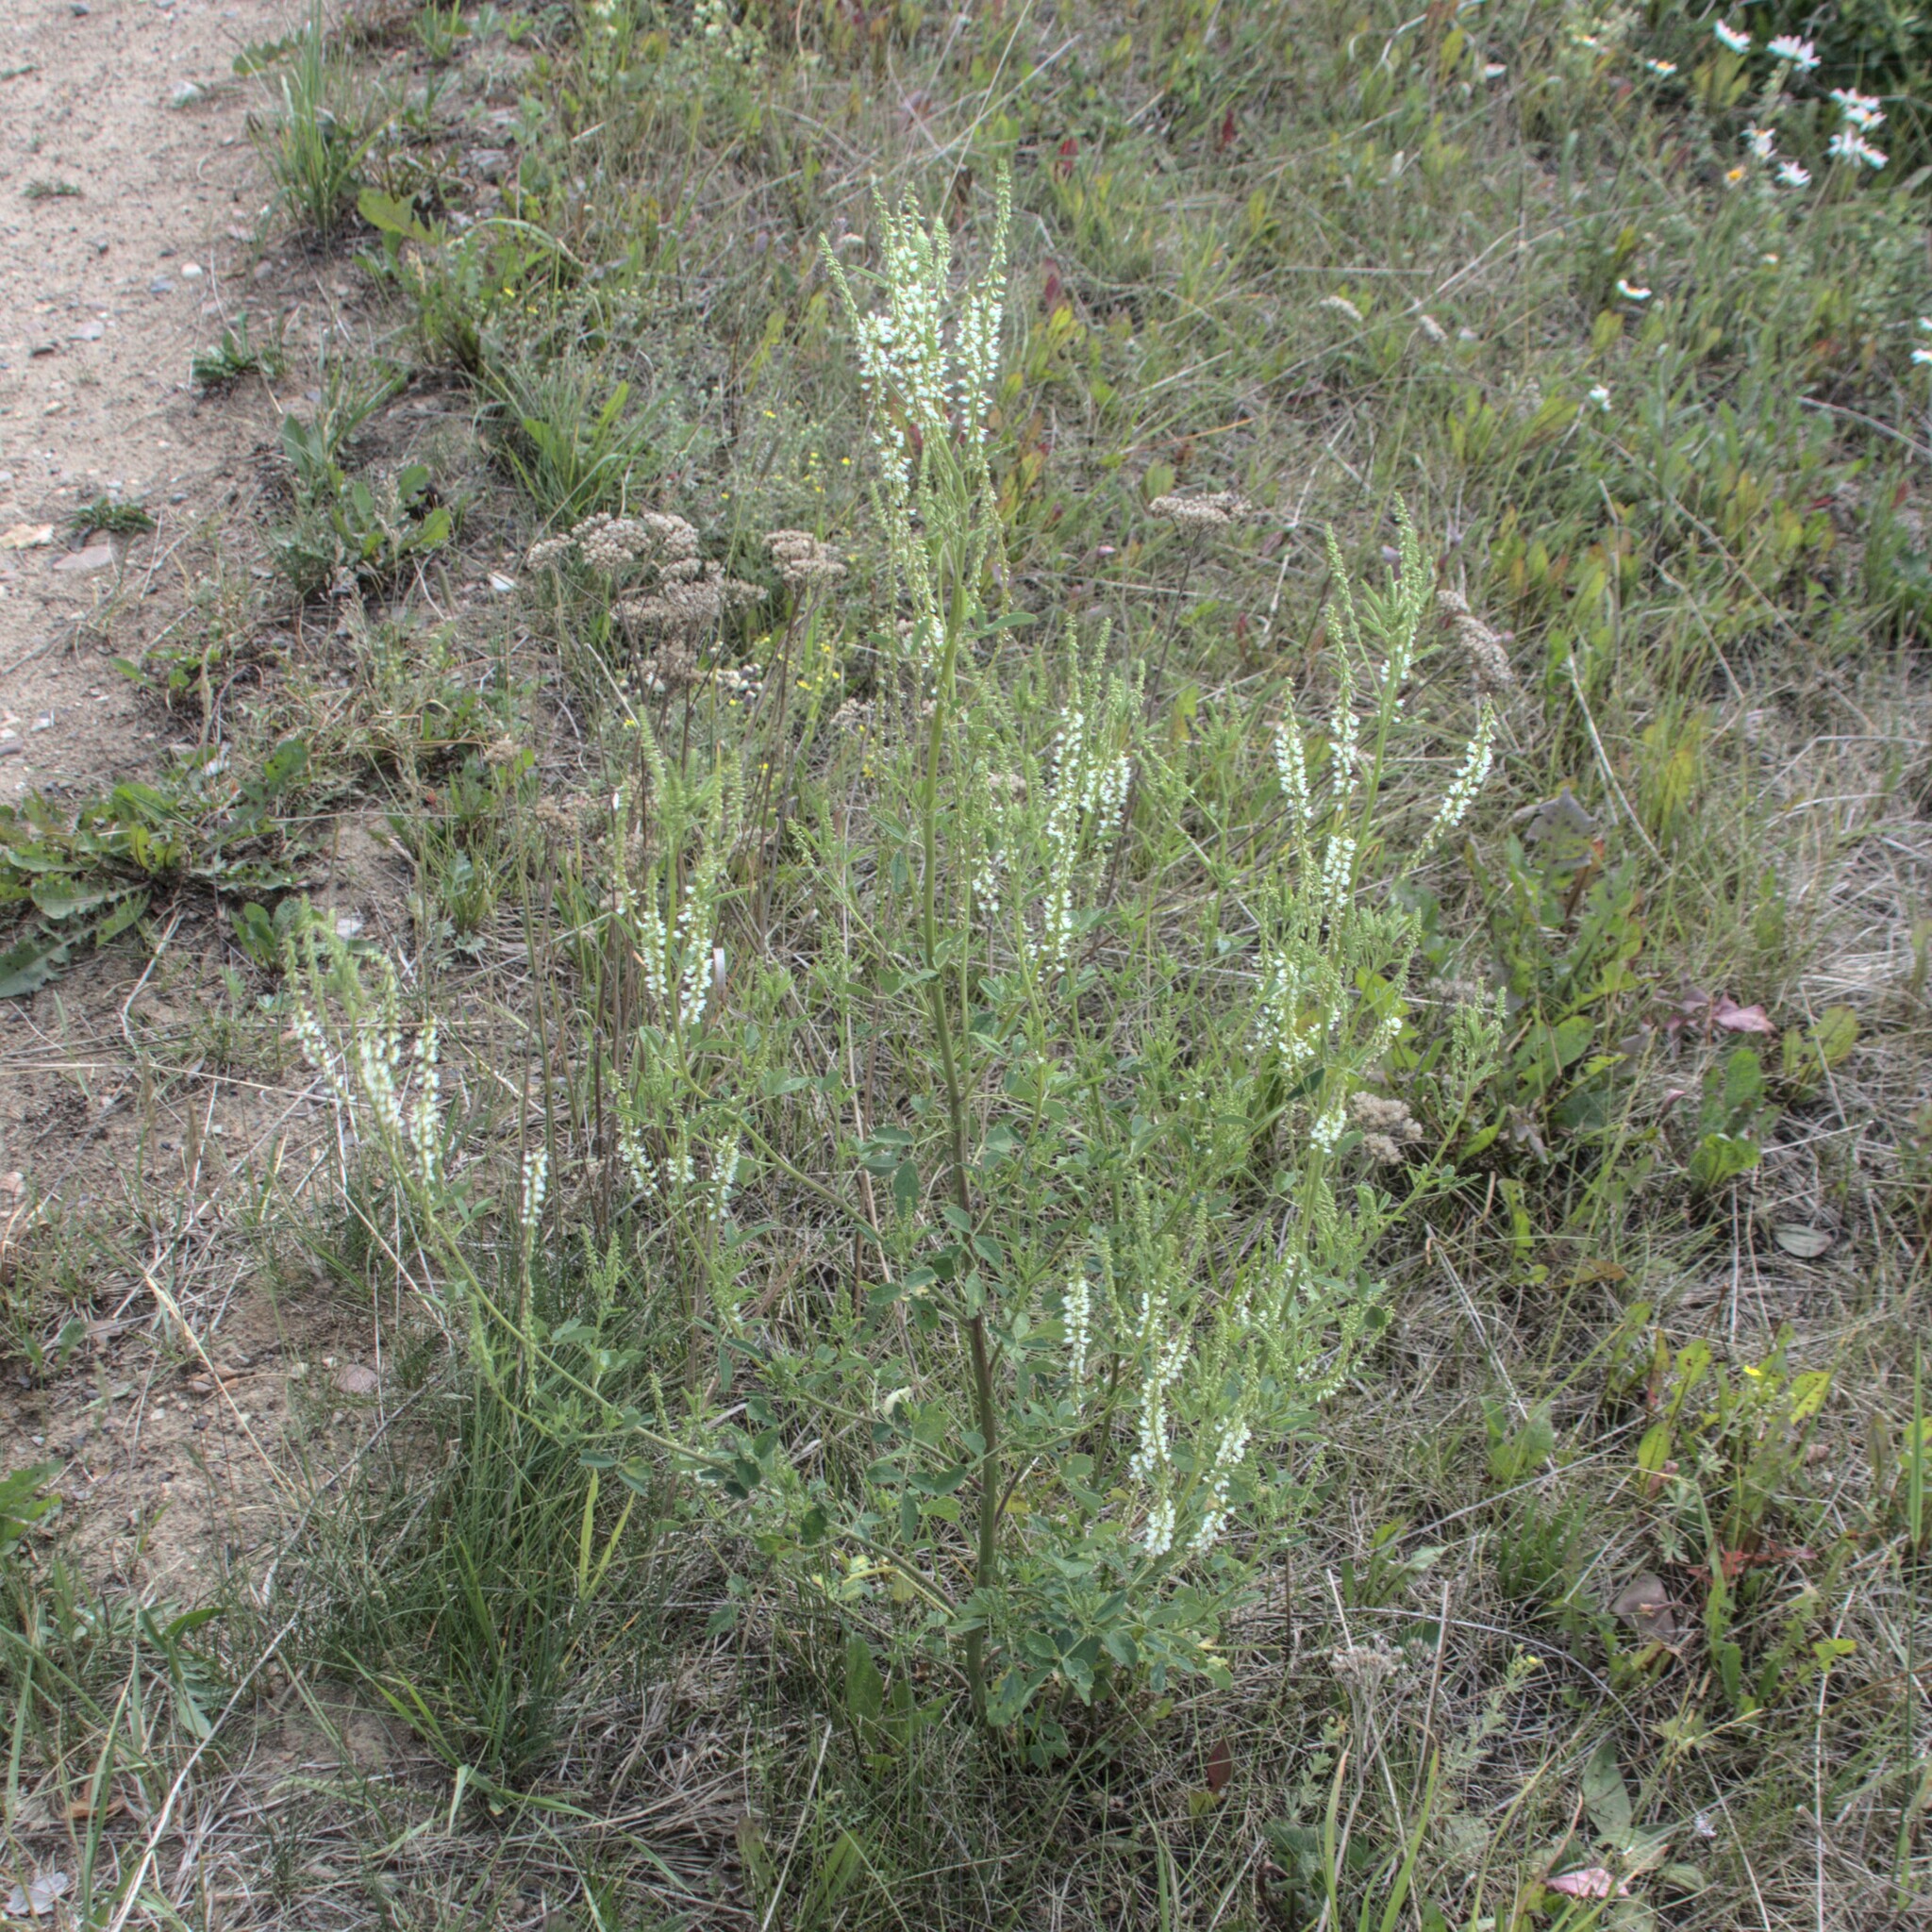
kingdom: Plantae
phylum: Tracheophyta
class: Magnoliopsida
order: Fabales
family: Fabaceae
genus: Melilotus
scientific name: Melilotus albus
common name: White melilot
